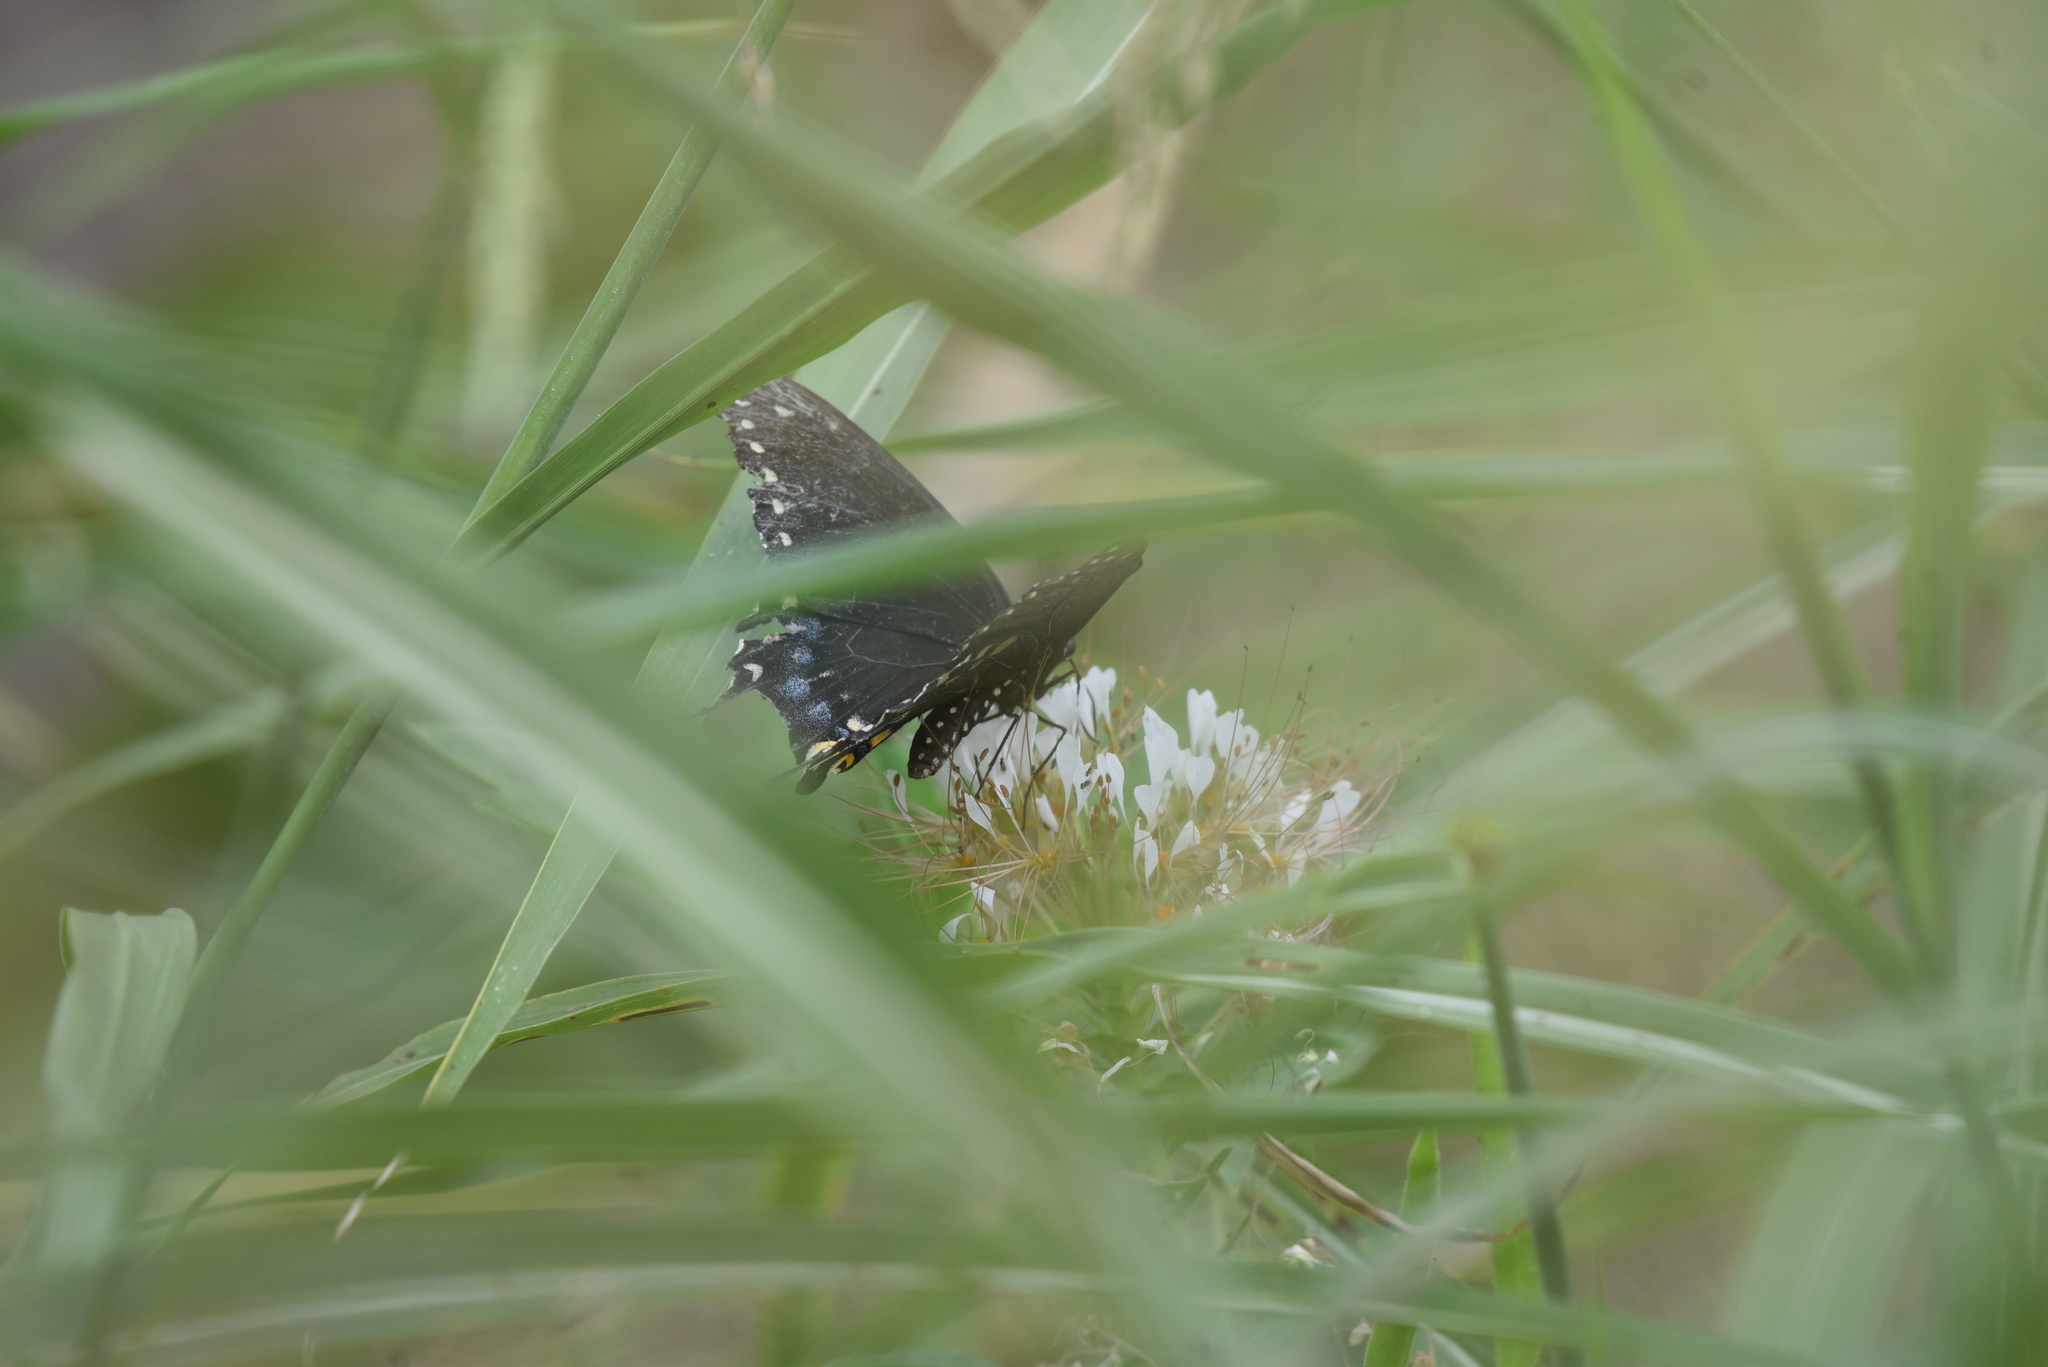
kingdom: Animalia
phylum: Arthropoda
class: Insecta
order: Lepidoptera
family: Papilionidae
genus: Papilio
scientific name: Papilio polyxenes
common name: Black swallowtail
